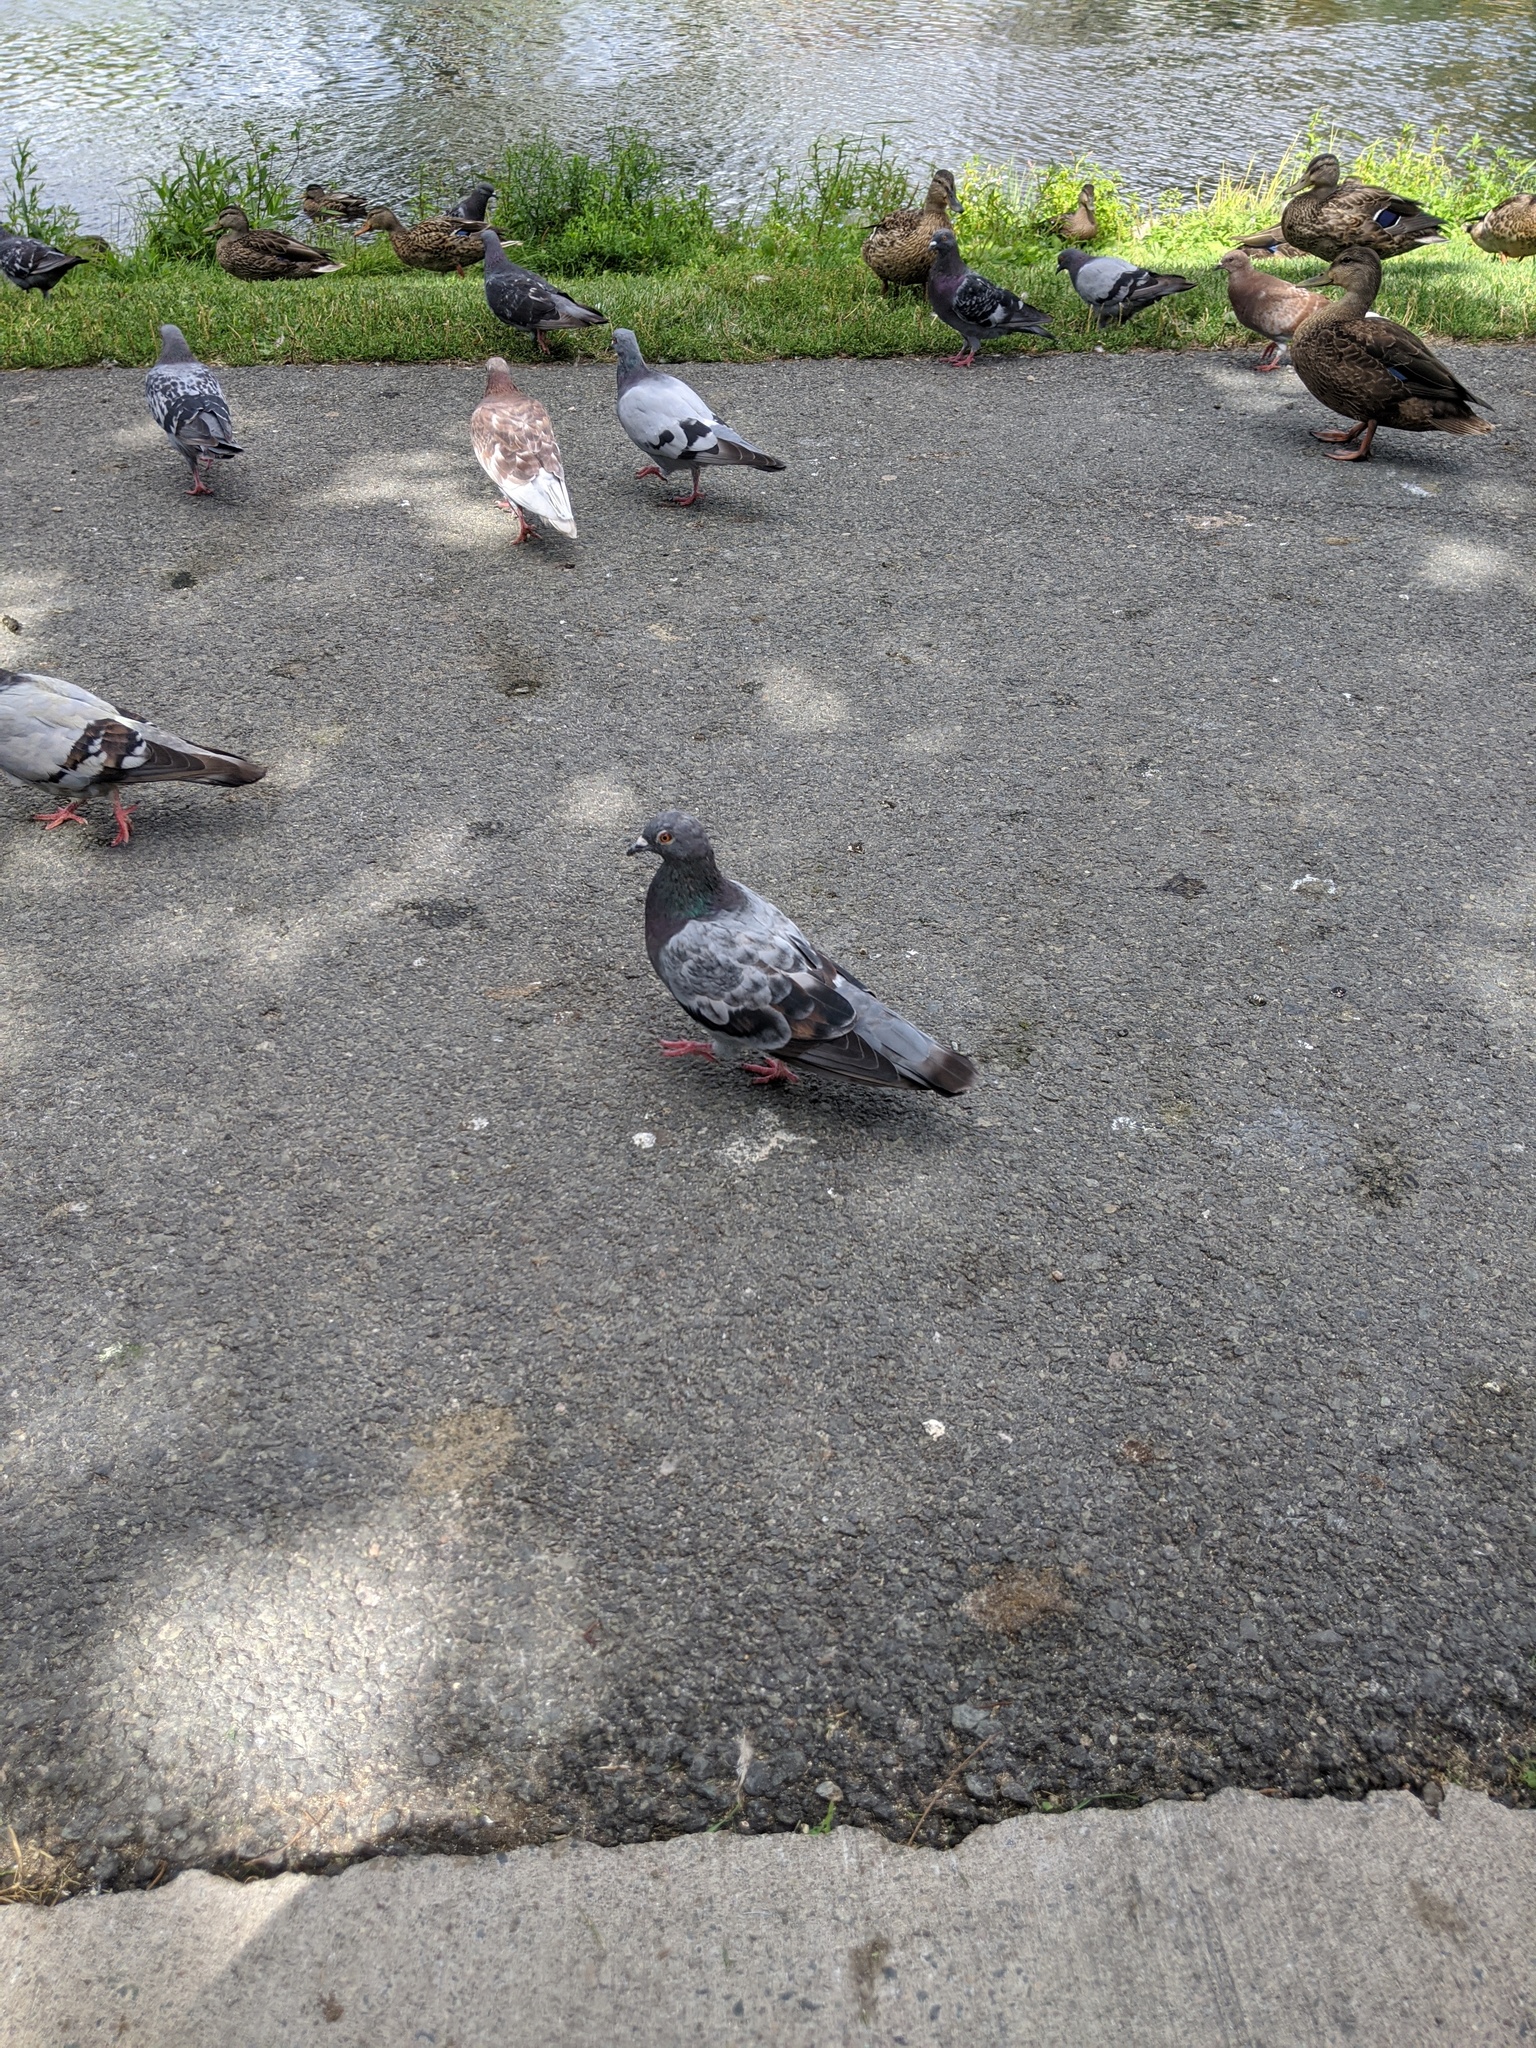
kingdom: Animalia
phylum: Chordata
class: Aves
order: Columbiformes
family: Columbidae
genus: Columba
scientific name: Columba livia
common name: Rock pigeon
